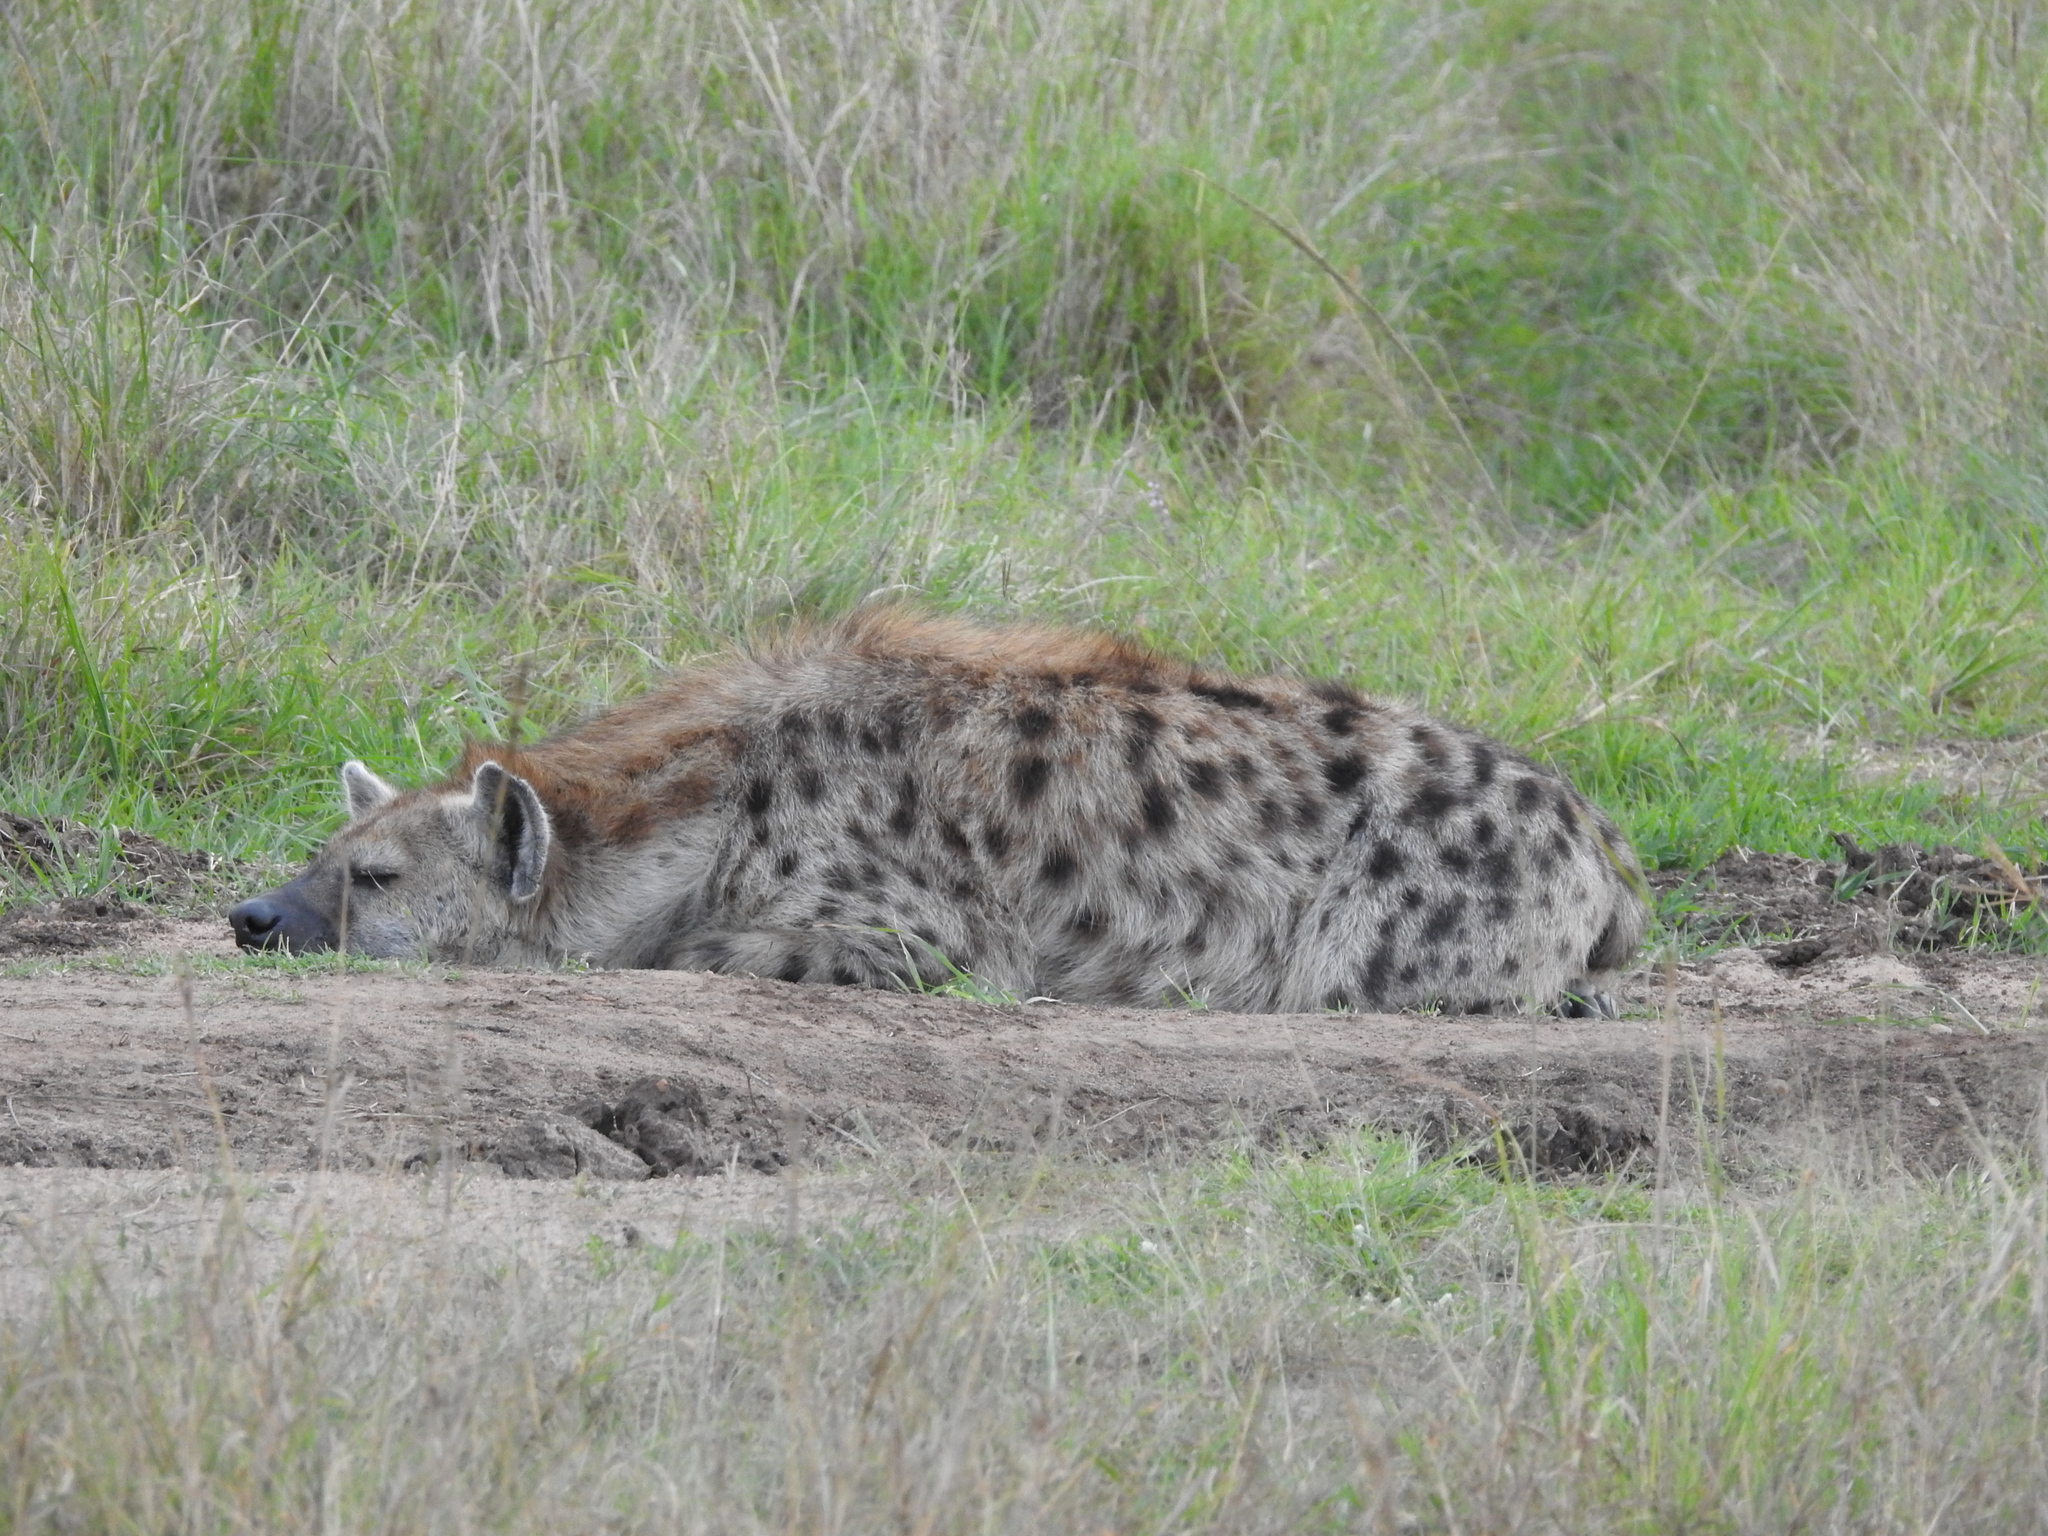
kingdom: Animalia
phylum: Chordata
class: Mammalia
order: Carnivora
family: Hyaenidae
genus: Crocuta
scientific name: Crocuta crocuta
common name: Spotted hyaena
